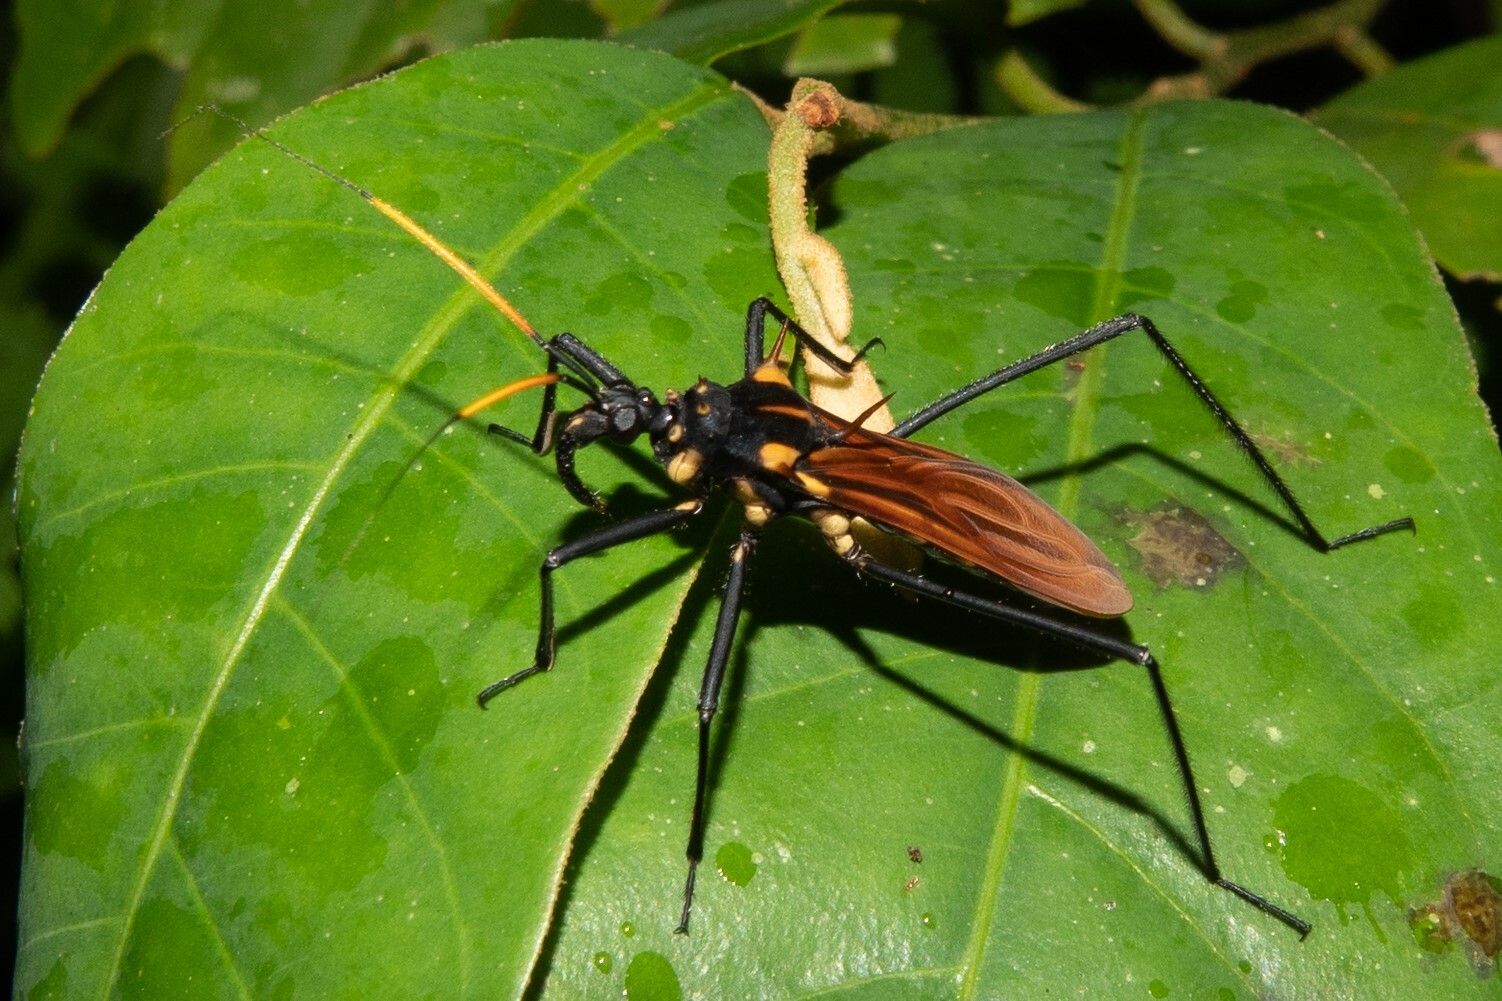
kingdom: Animalia
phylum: Arthropoda
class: Insecta
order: Hemiptera
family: Reduviidae
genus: Zelurus
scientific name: Zelurus festivus
